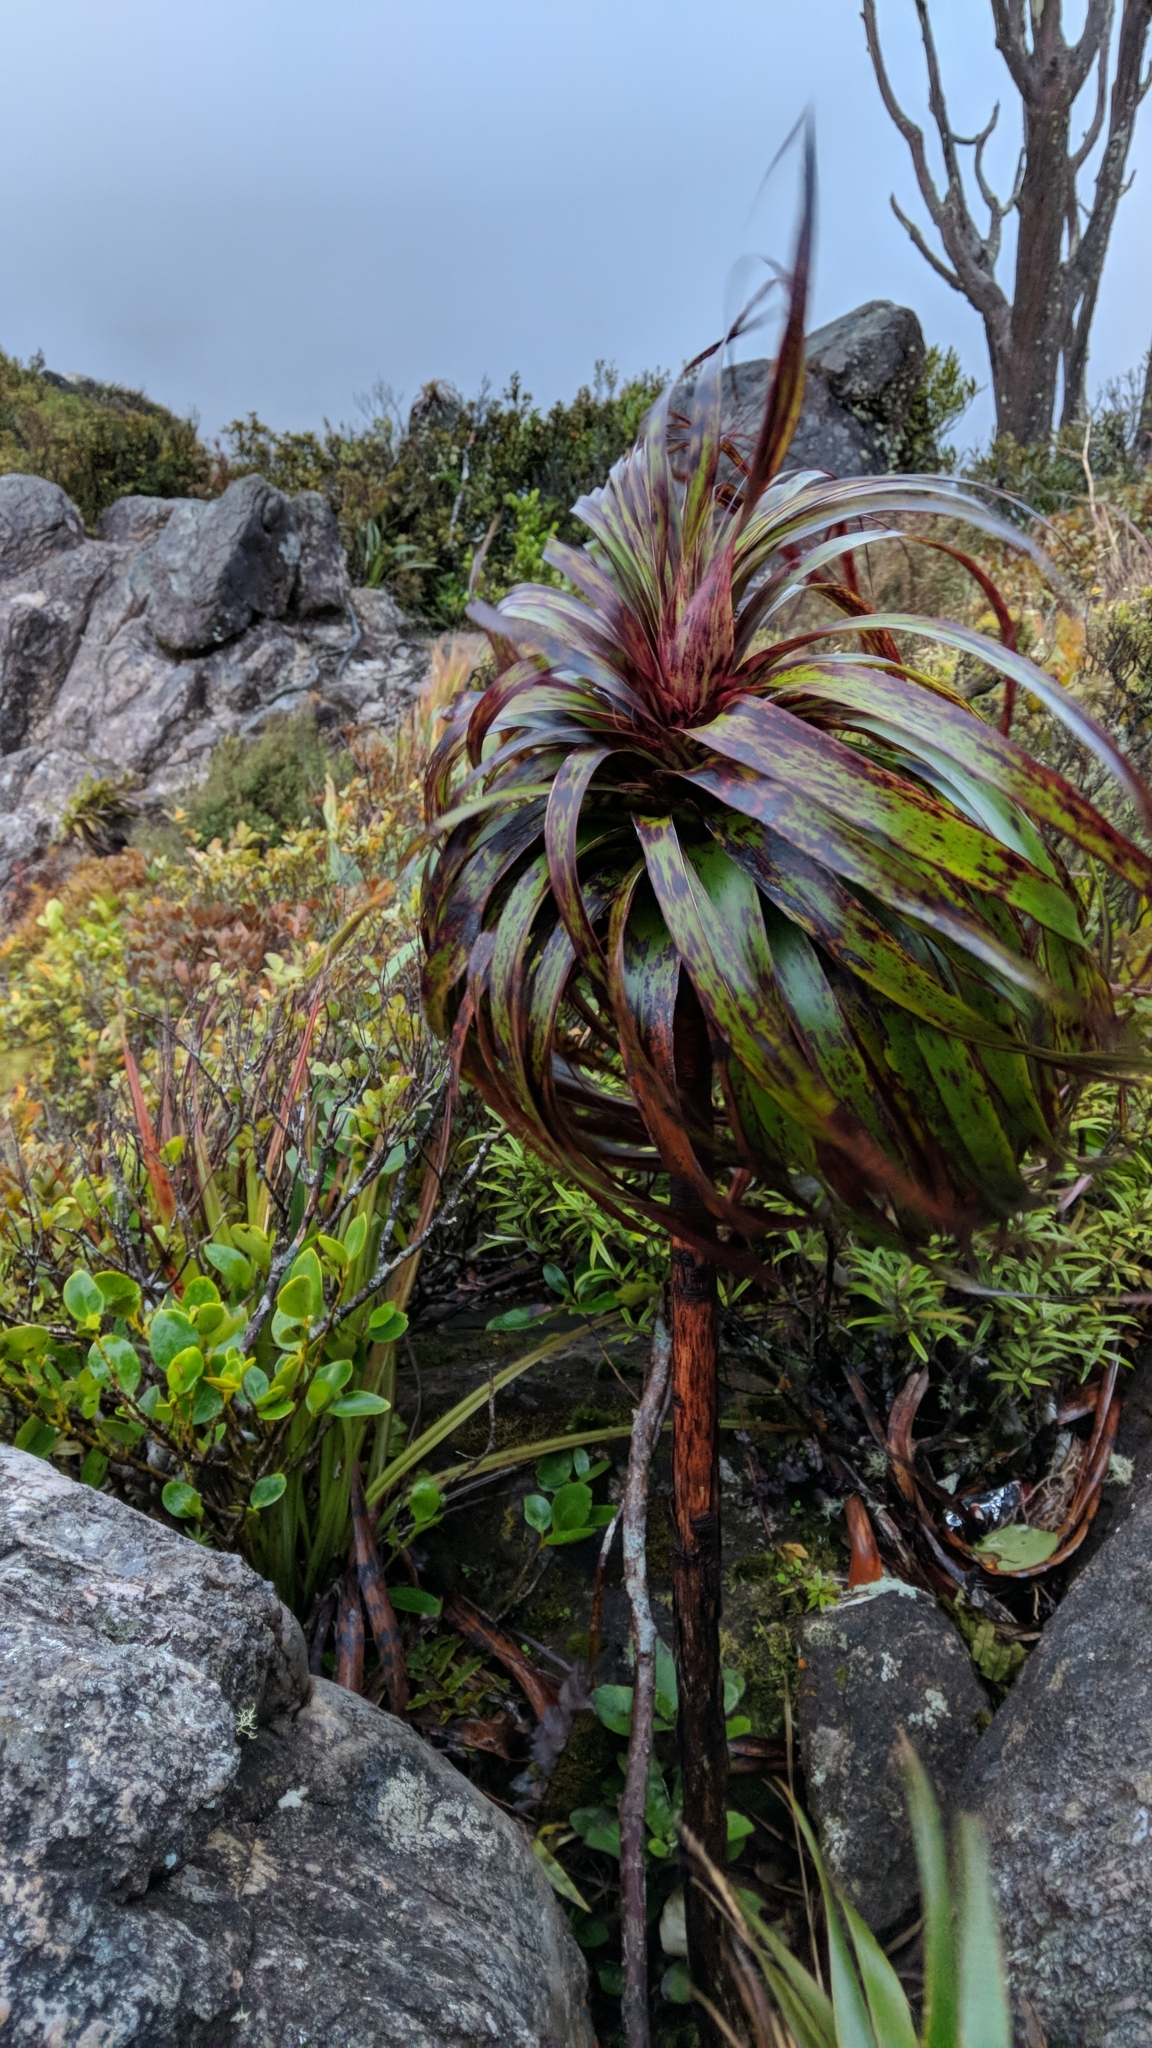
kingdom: Plantae
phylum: Tracheophyta
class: Magnoliopsida
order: Ericales
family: Ericaceae
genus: Dracophyllum
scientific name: Dracophyllum traversii
